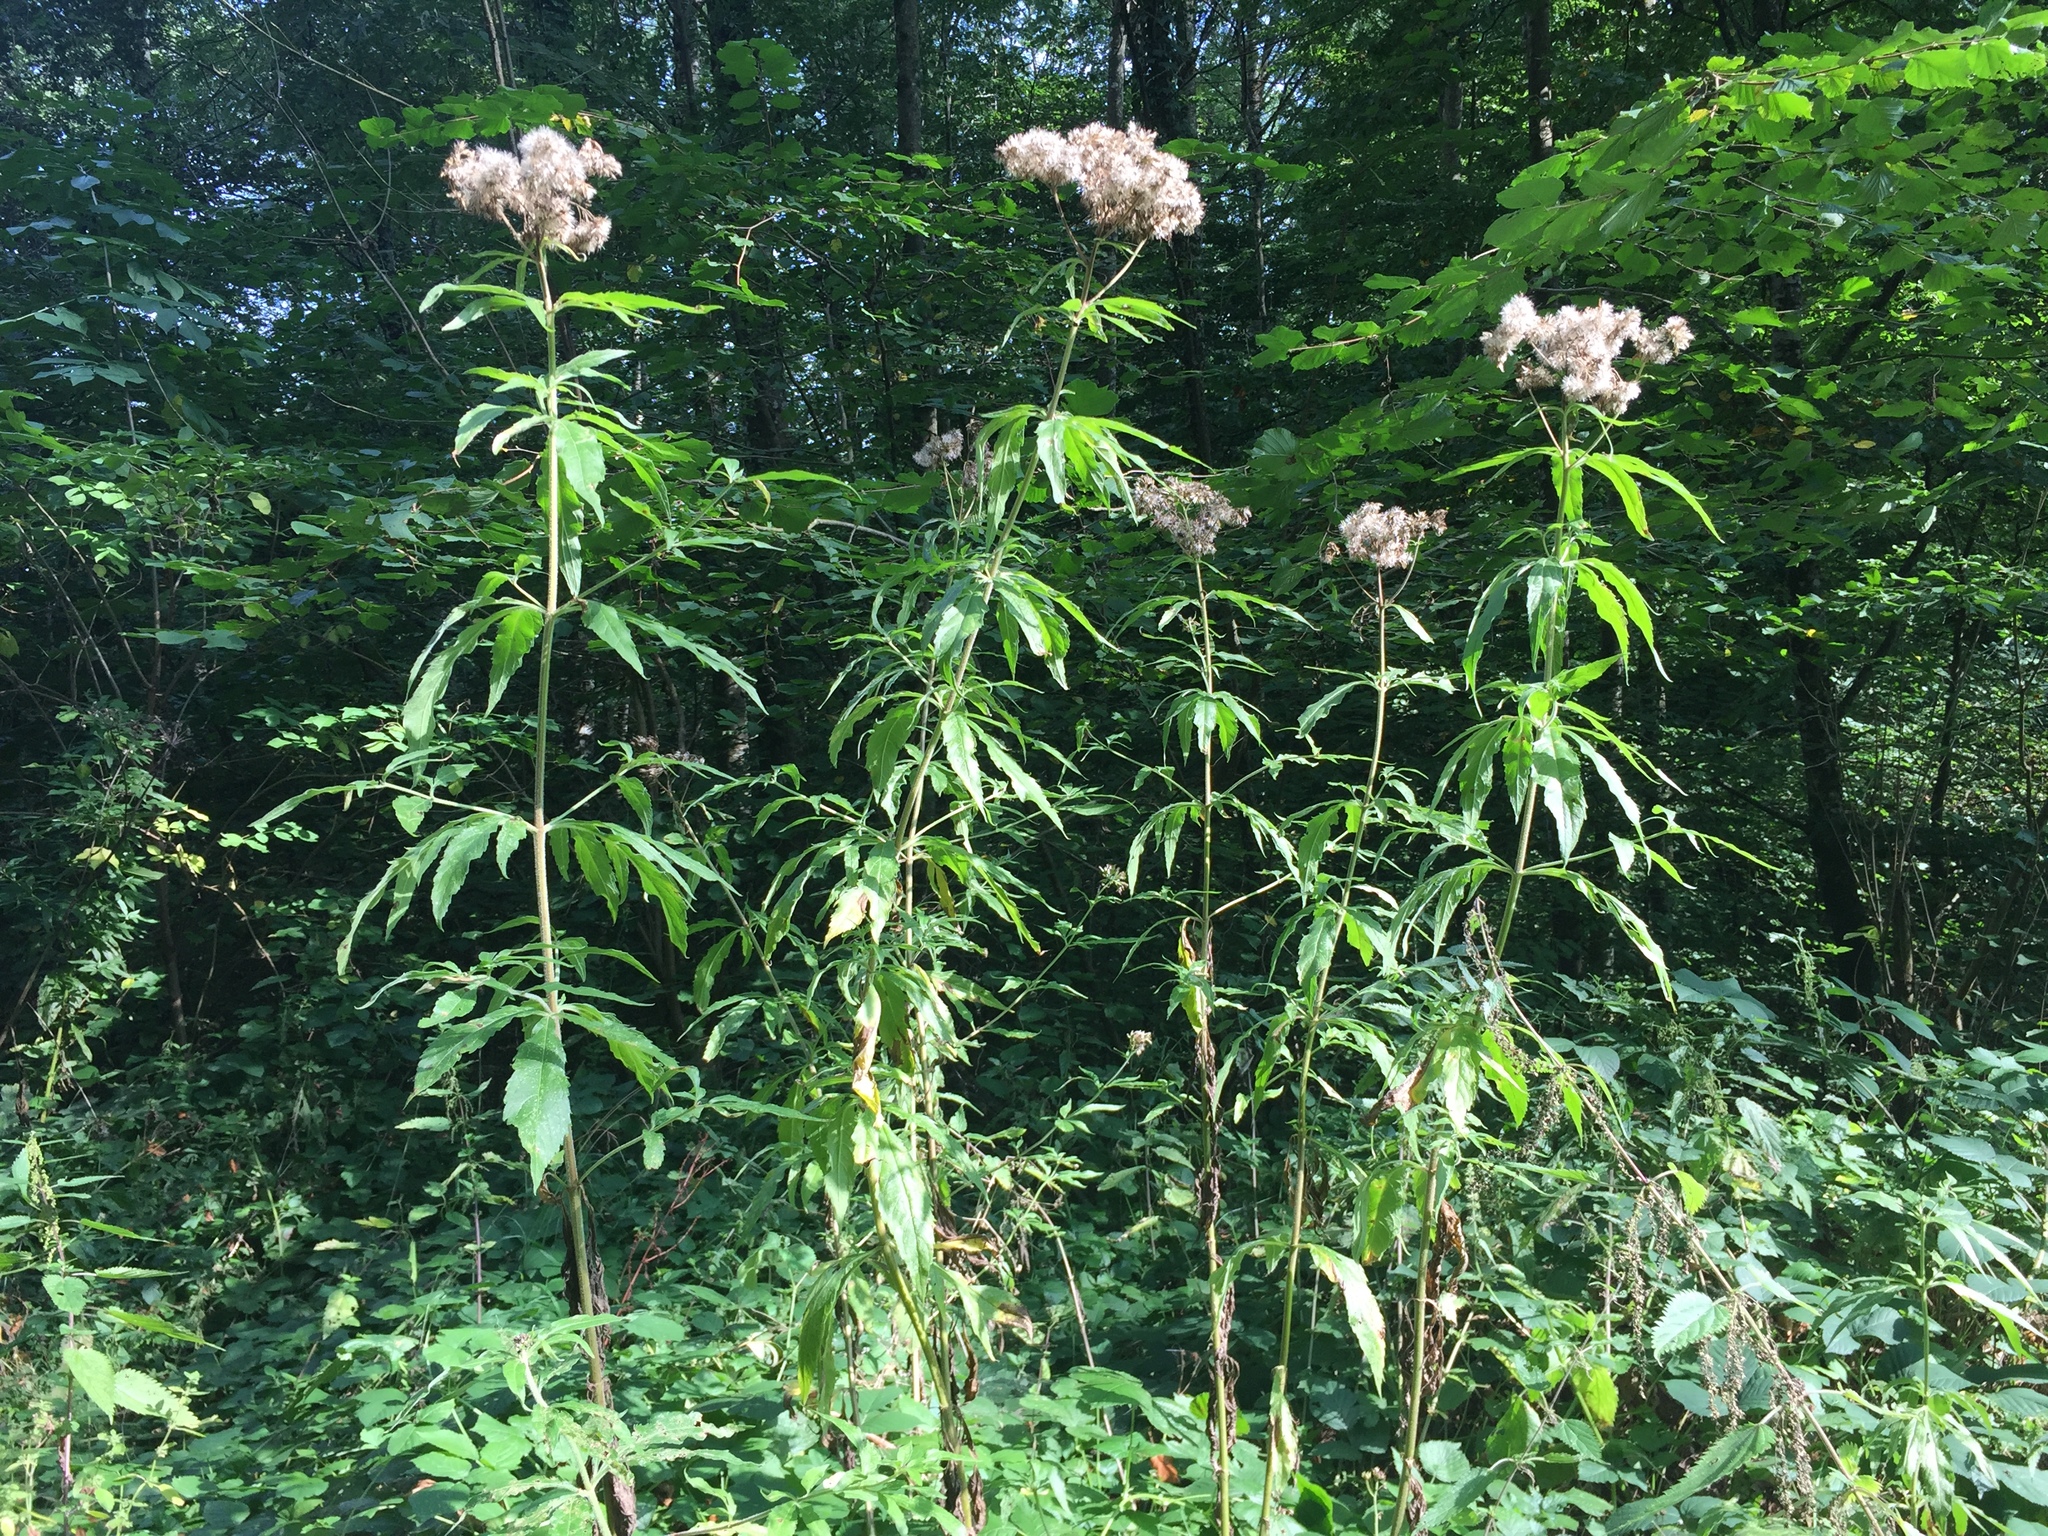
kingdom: Plantae
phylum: Tracheophyta
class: Magnoliopsida
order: Asterales
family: Asteraceae
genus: Eupatorium
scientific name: Eupatorium cannabinum
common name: Hemp-agrimony
